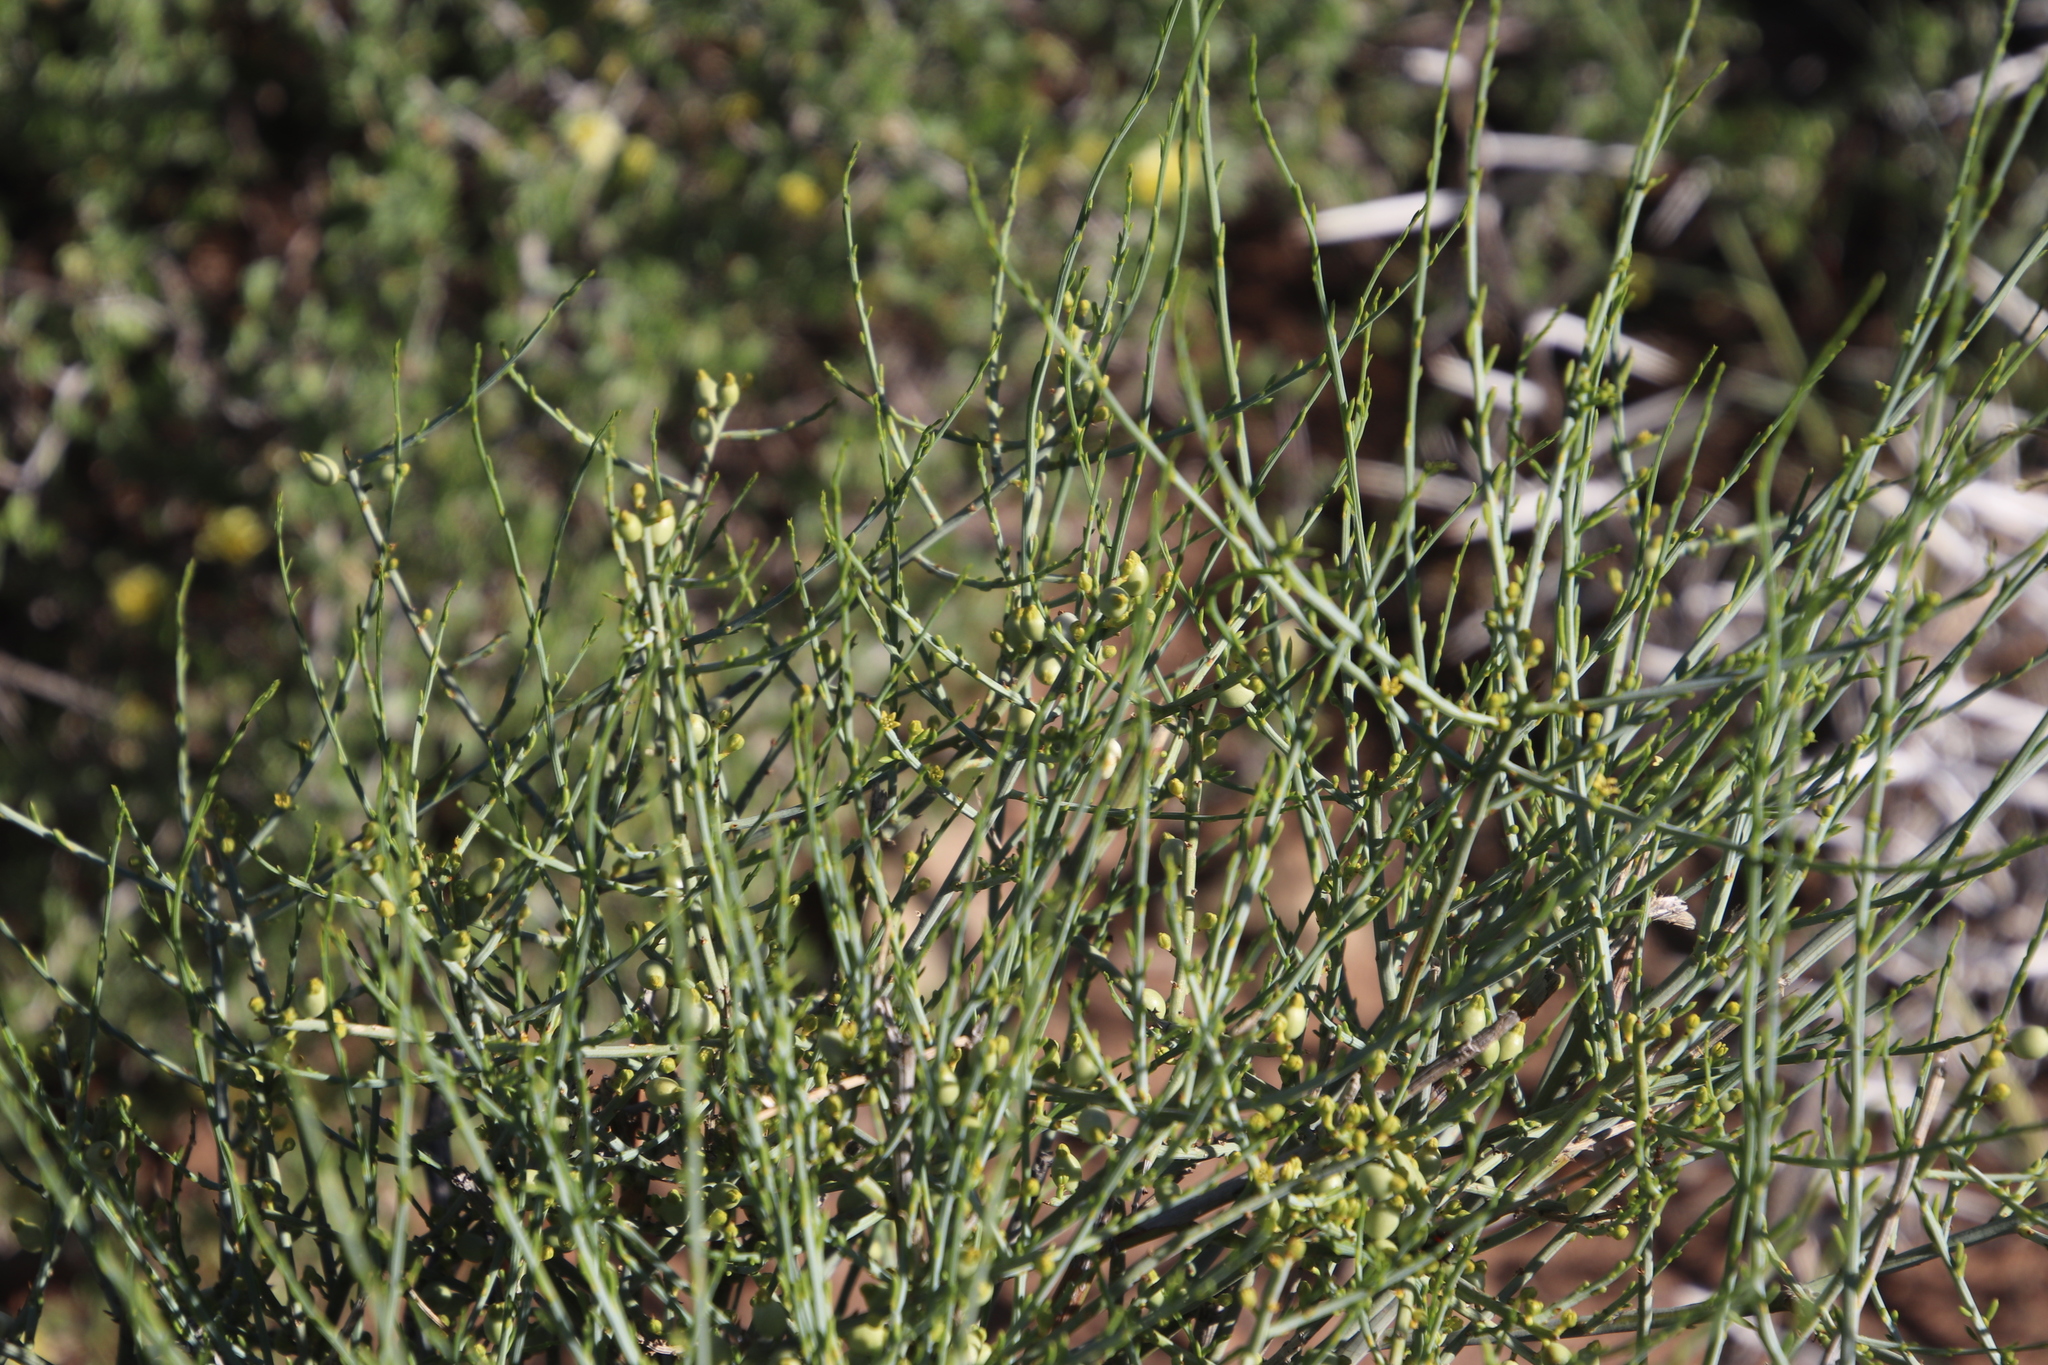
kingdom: Plantae
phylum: Tracheophyta
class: Magnoliopsida
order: Santalales
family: Thesiaceae
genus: Lacomucinaea
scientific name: Lacomucinaea lineata
